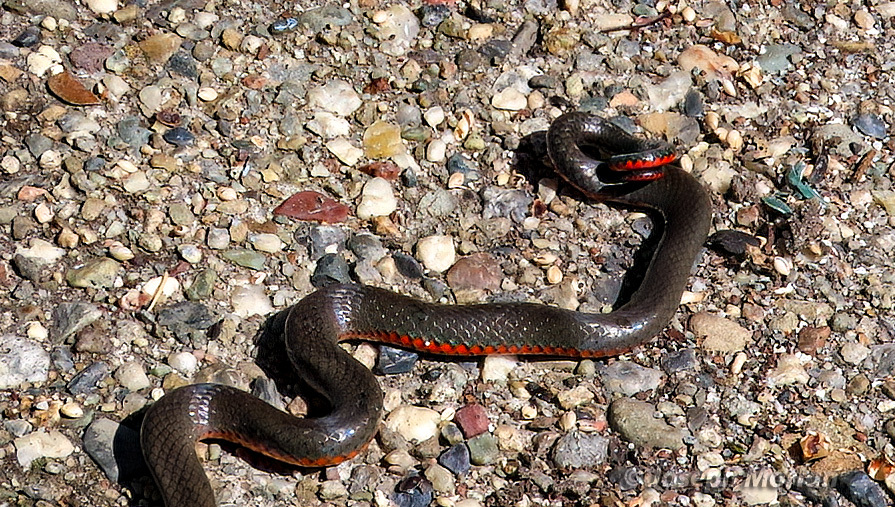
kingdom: Animalia
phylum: Chordata
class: Squamata
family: Colubridae
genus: Diadophis
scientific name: Diadophis punctatus
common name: Ringneck snake
